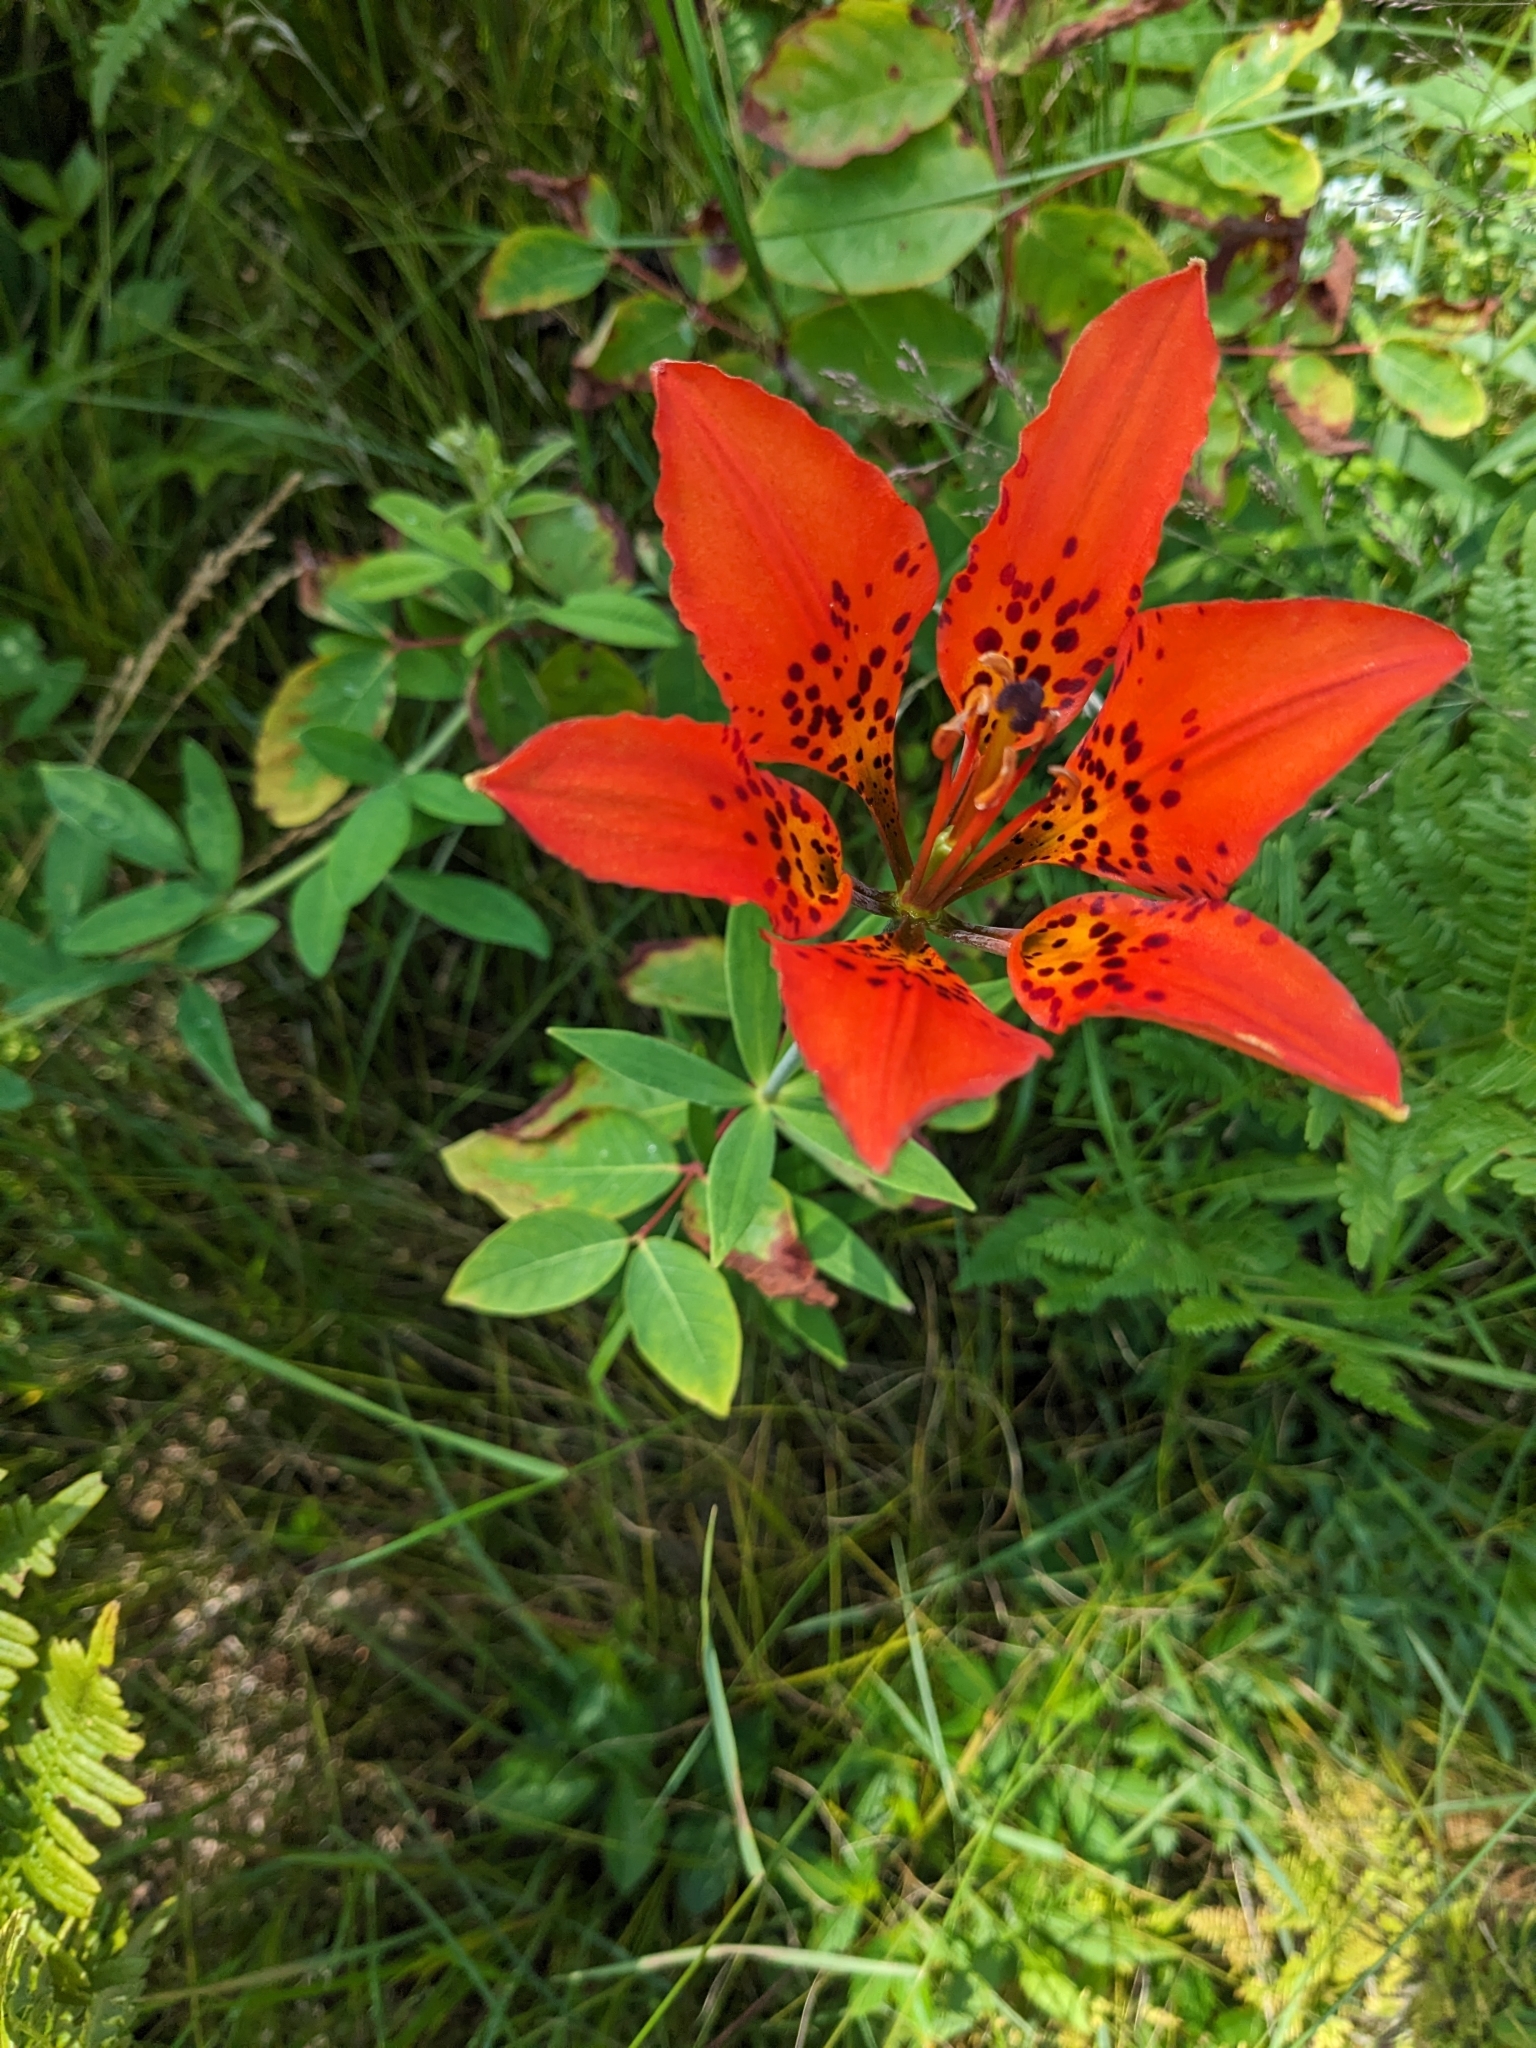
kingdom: Plantae
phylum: Tracheophyta
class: Liliopsida
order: Liliales
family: Liliaceae
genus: Lilium
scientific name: Lilium philadelphicum
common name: Red lily
